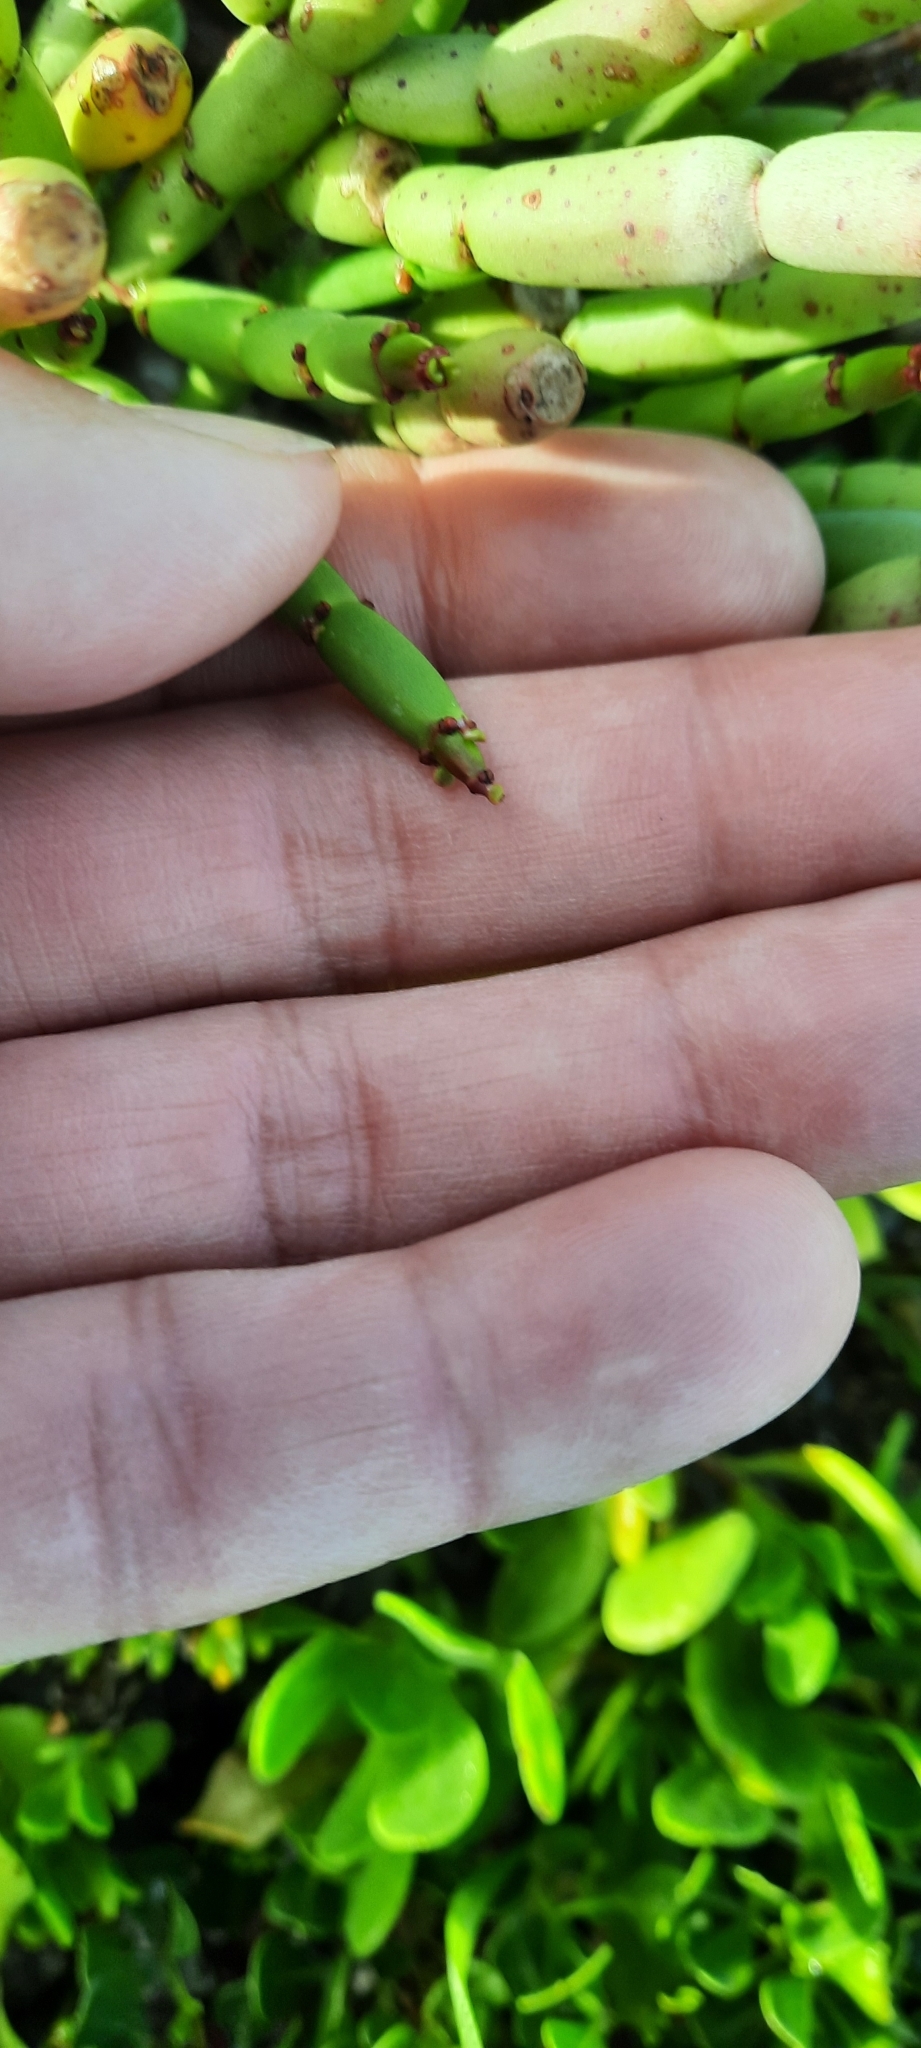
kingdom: Plantae
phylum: Tracheophyta
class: Magnoliopsida
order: Malpighiales
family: Euphorbiaceae
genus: Euphorbia
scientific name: Euphorbia burmanni
